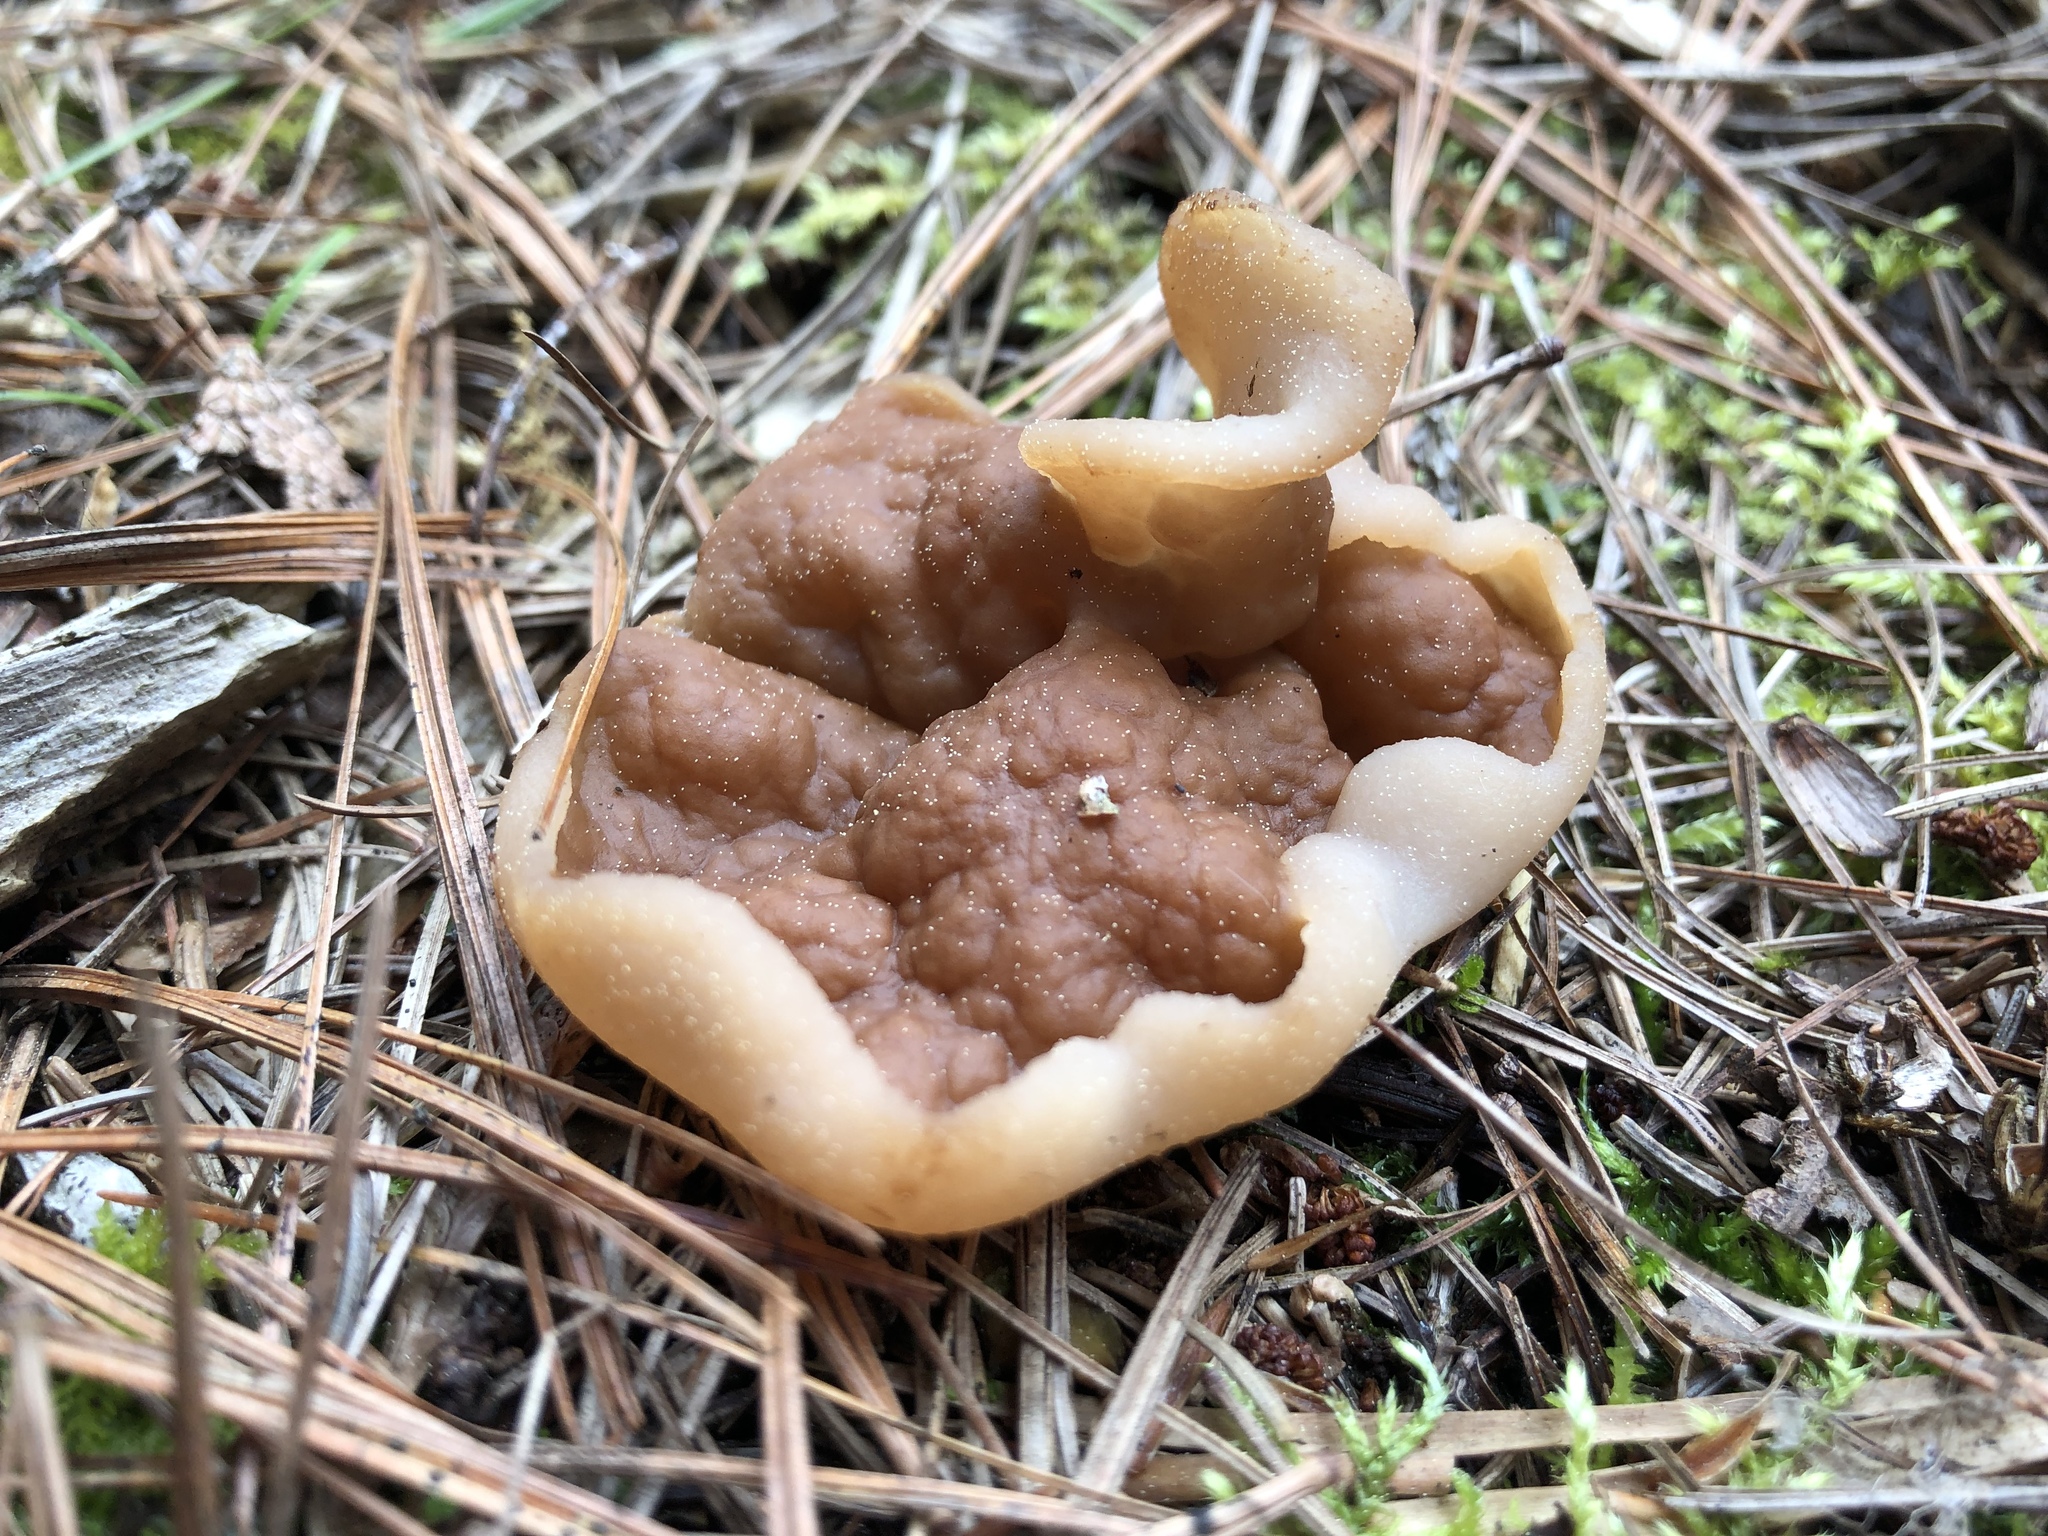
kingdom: Fungi
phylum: Ascomycota
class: Pezizomycetes
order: Pezizales
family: Discinaceae
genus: Discina
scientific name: Discina ancilis
